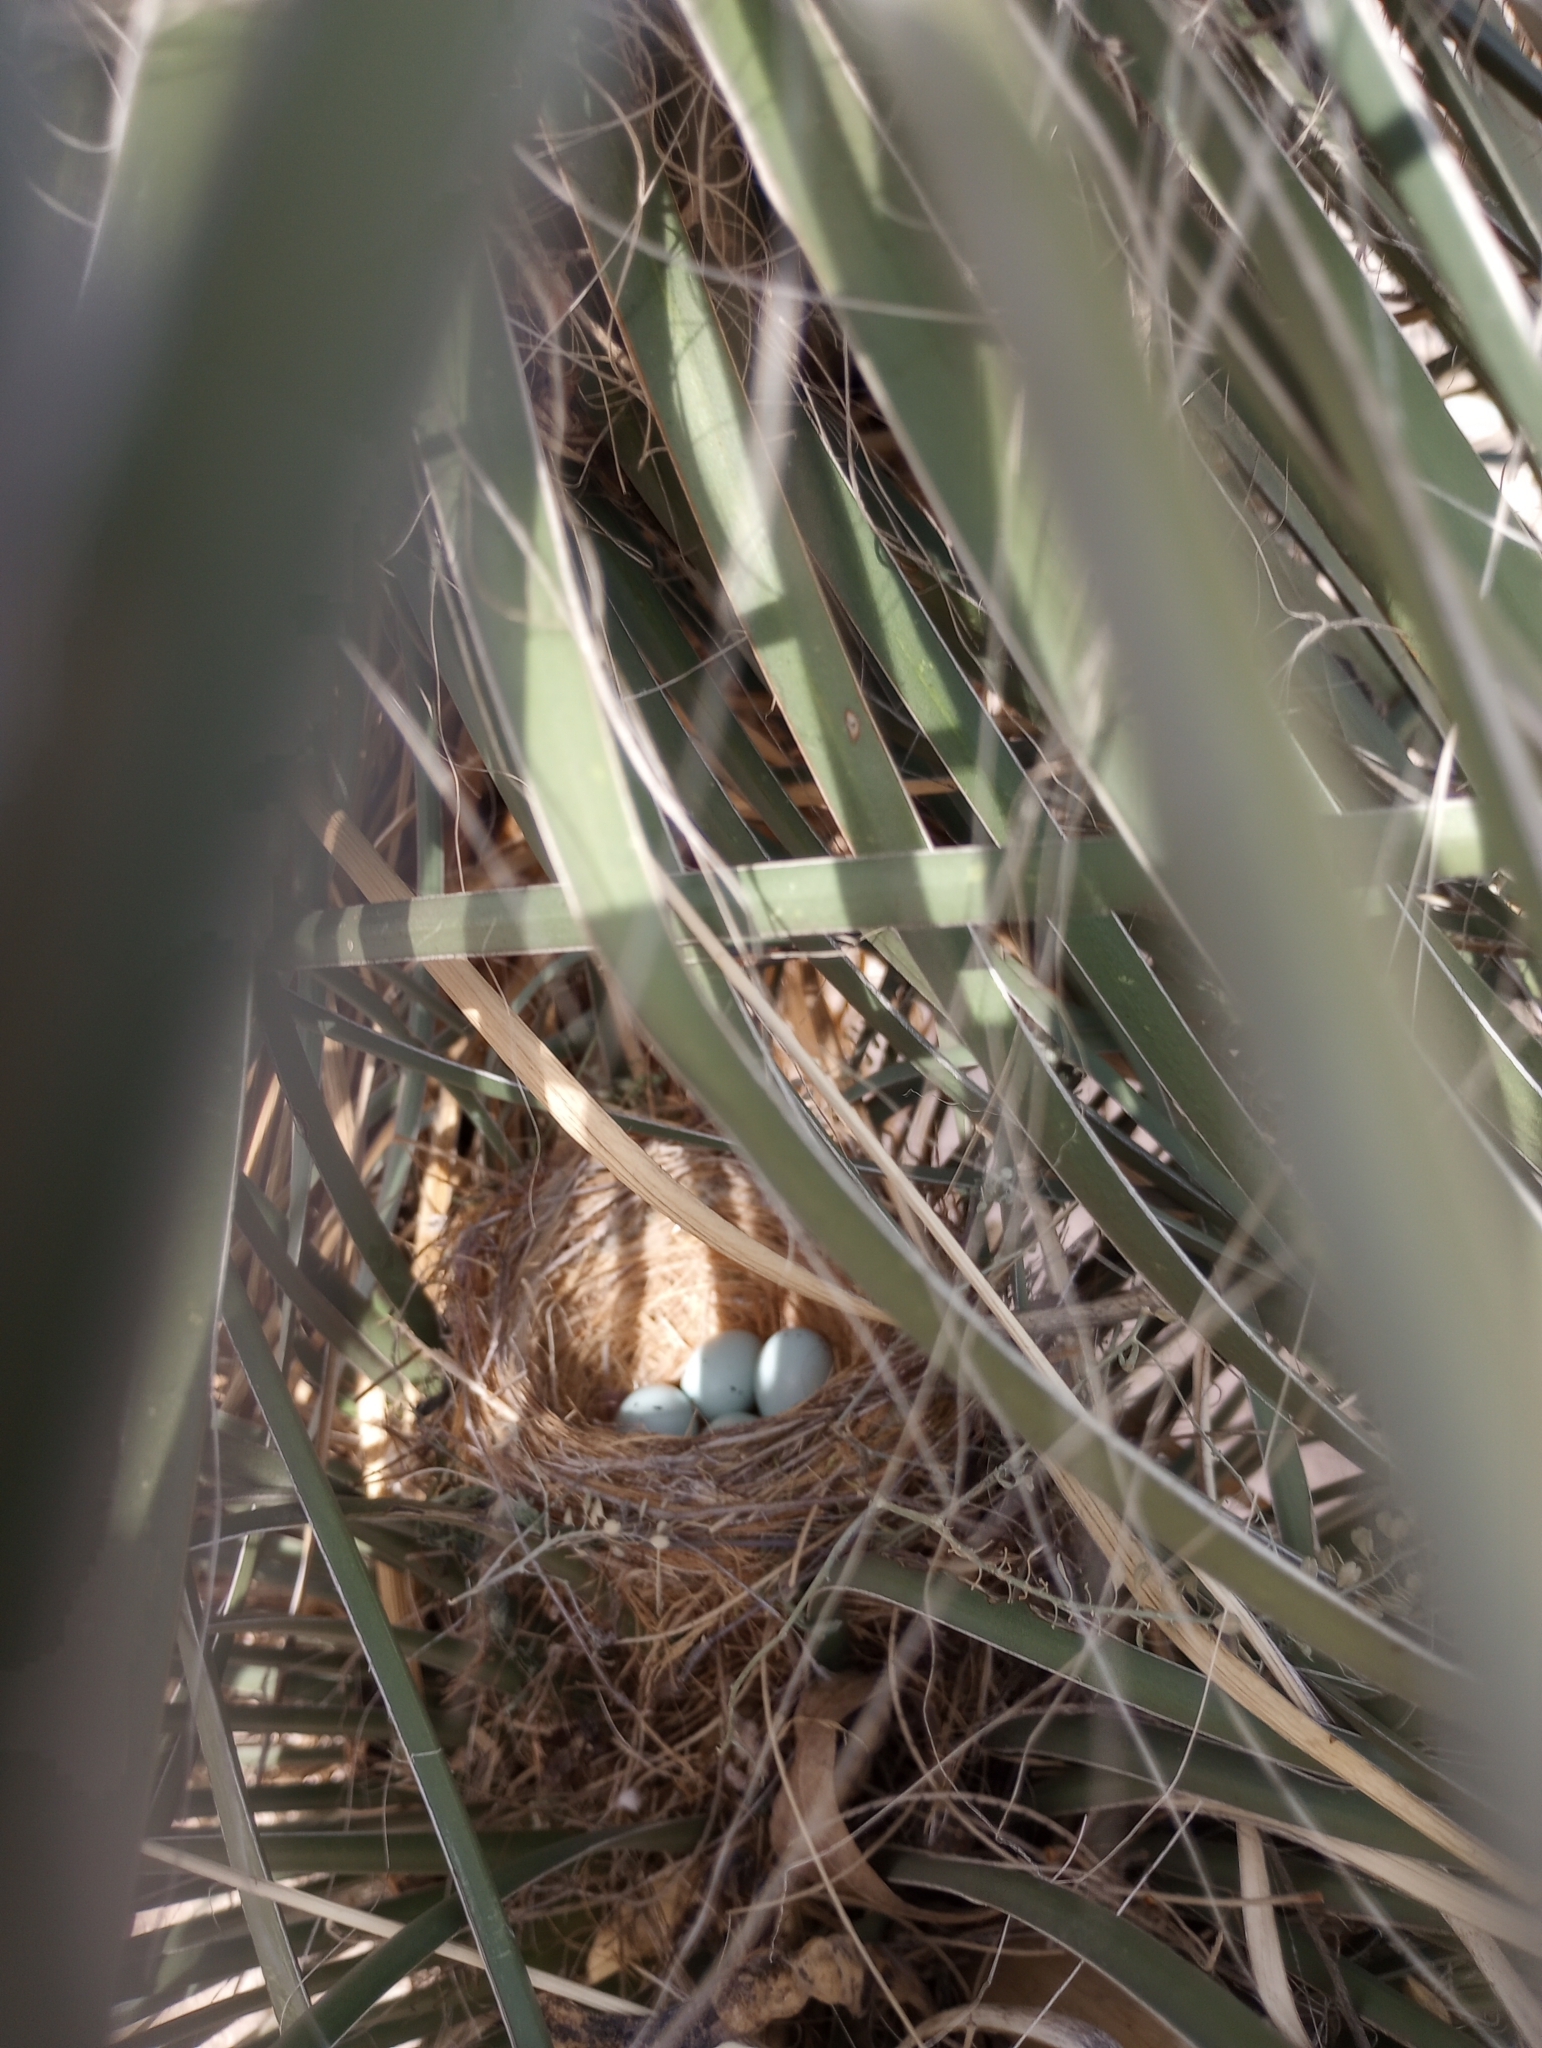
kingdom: Animalia
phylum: Chordata
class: Aves
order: Passeriformes
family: Fringillidae
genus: Haemorhous
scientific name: Haemorhous mexicanus
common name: House finch
